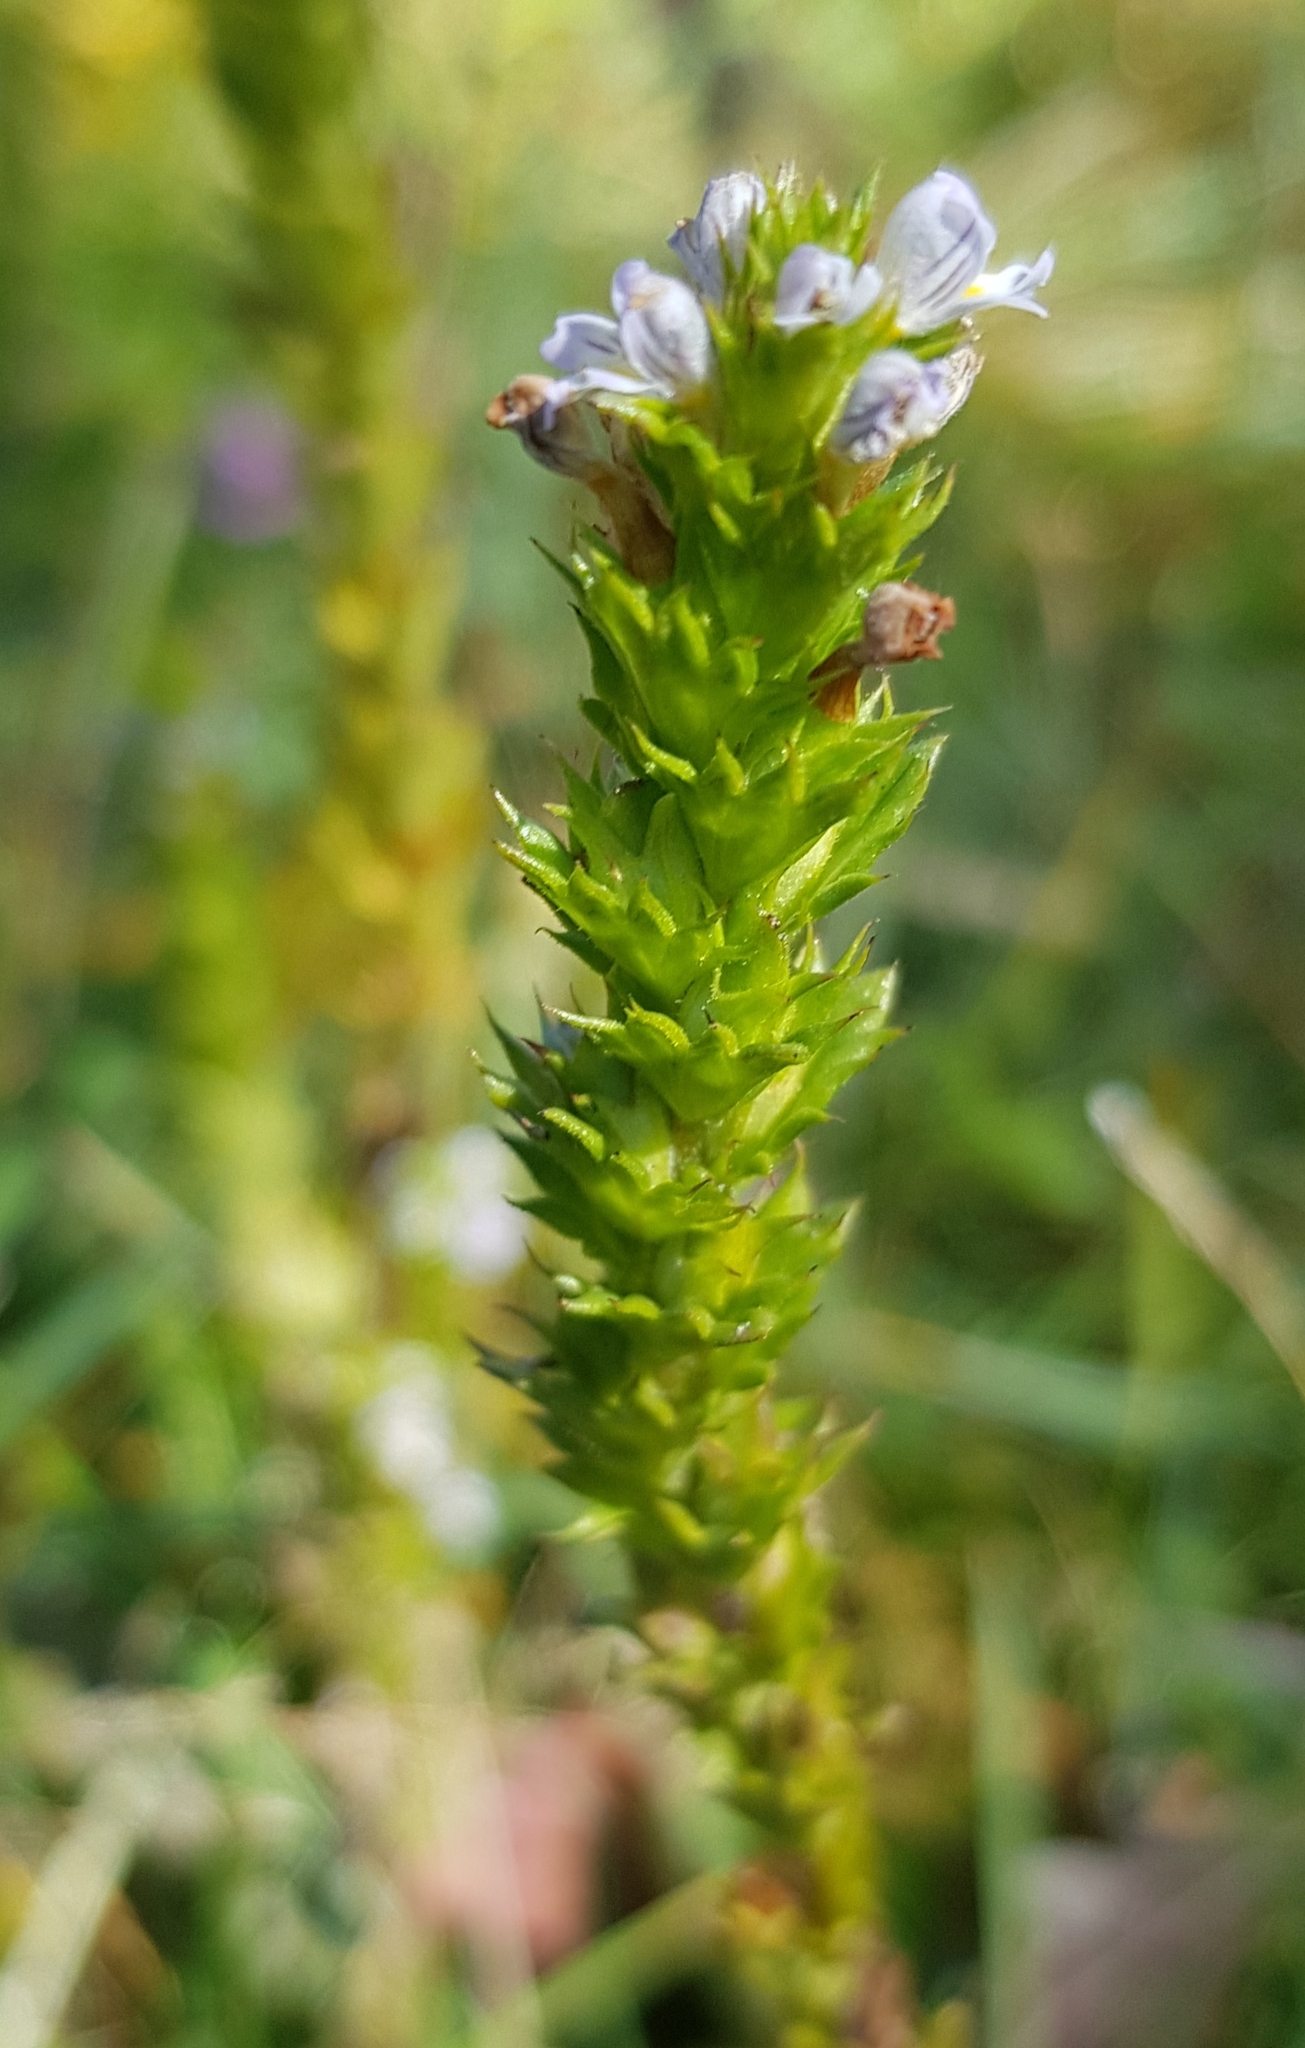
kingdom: Plantae
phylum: Tracheophyta
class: Magnoliopsida
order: Lamiales
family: Orobanchaceae
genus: Euphrasia
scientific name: Euphrasia hirtella
